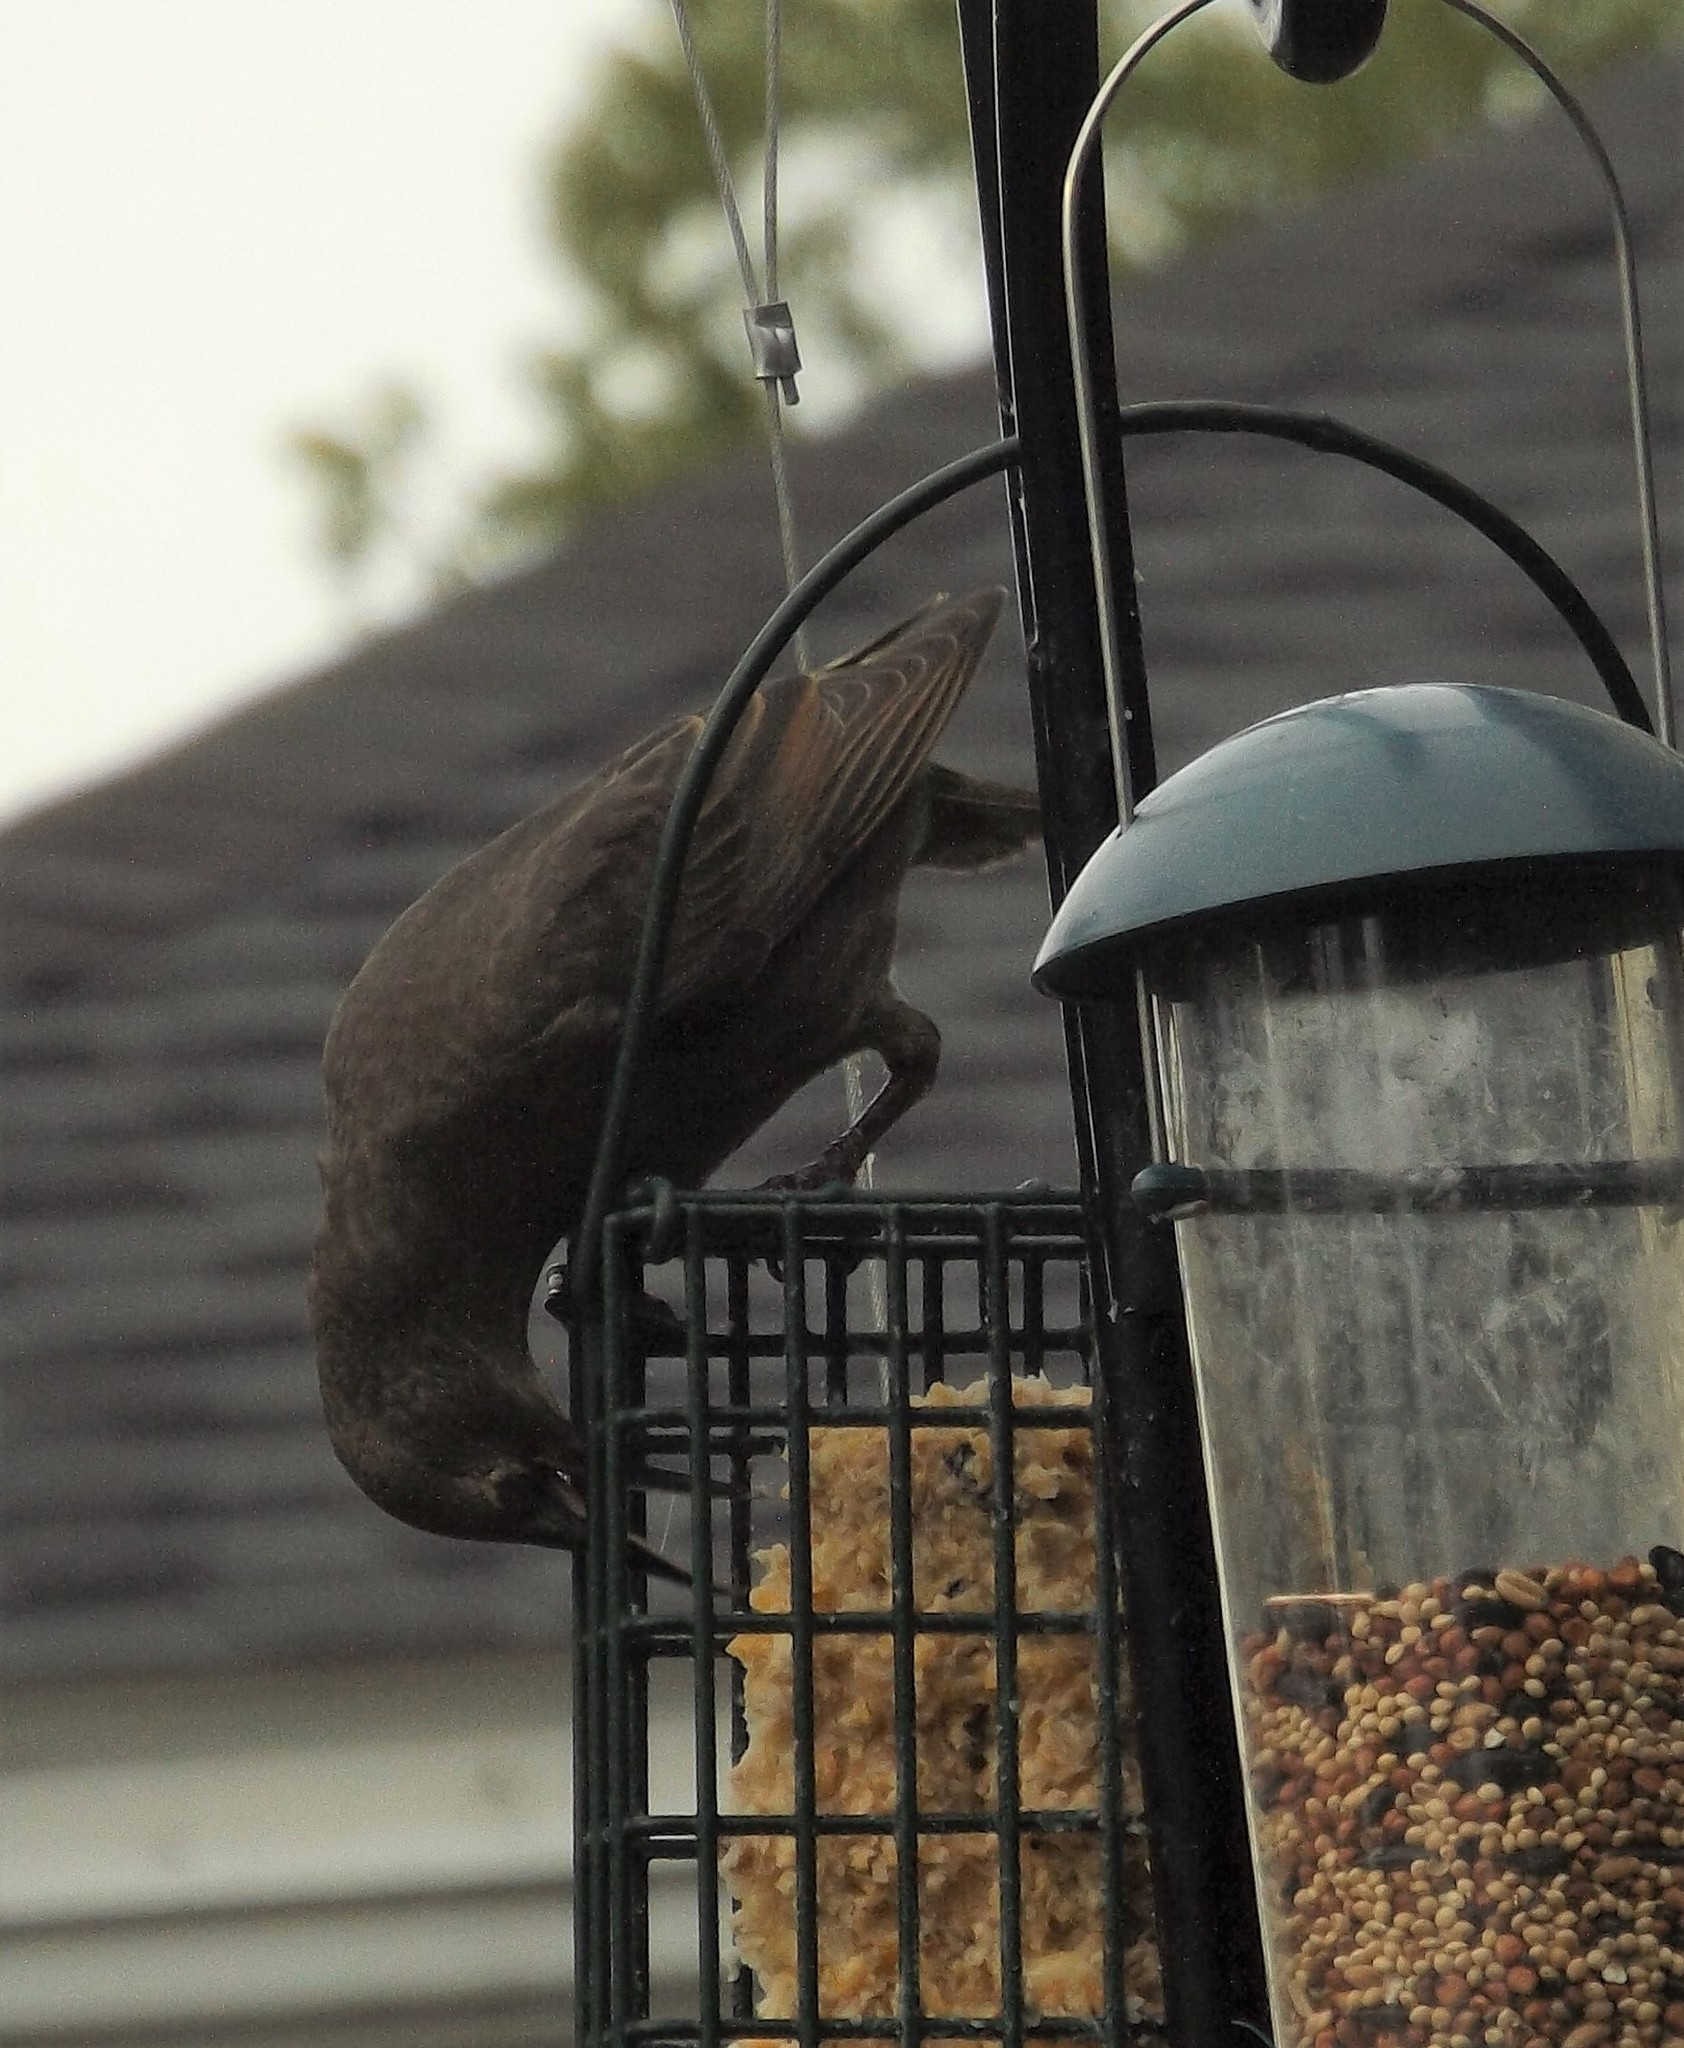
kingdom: Animalia
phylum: Chordata
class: Aves
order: Passeriformes
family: Sturnidae
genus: Sturnus
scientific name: Sturnus vulgaris
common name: Common starling
